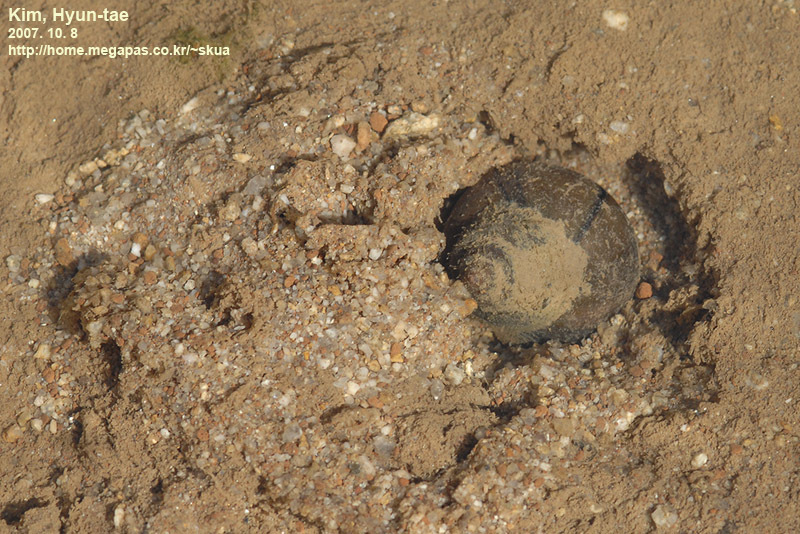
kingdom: Animalia
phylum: Mollusca
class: Gastropoda
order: Architaenioglossa
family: Viviparidae
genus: Cipangopaludina
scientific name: Cipangopaludina chinensis
